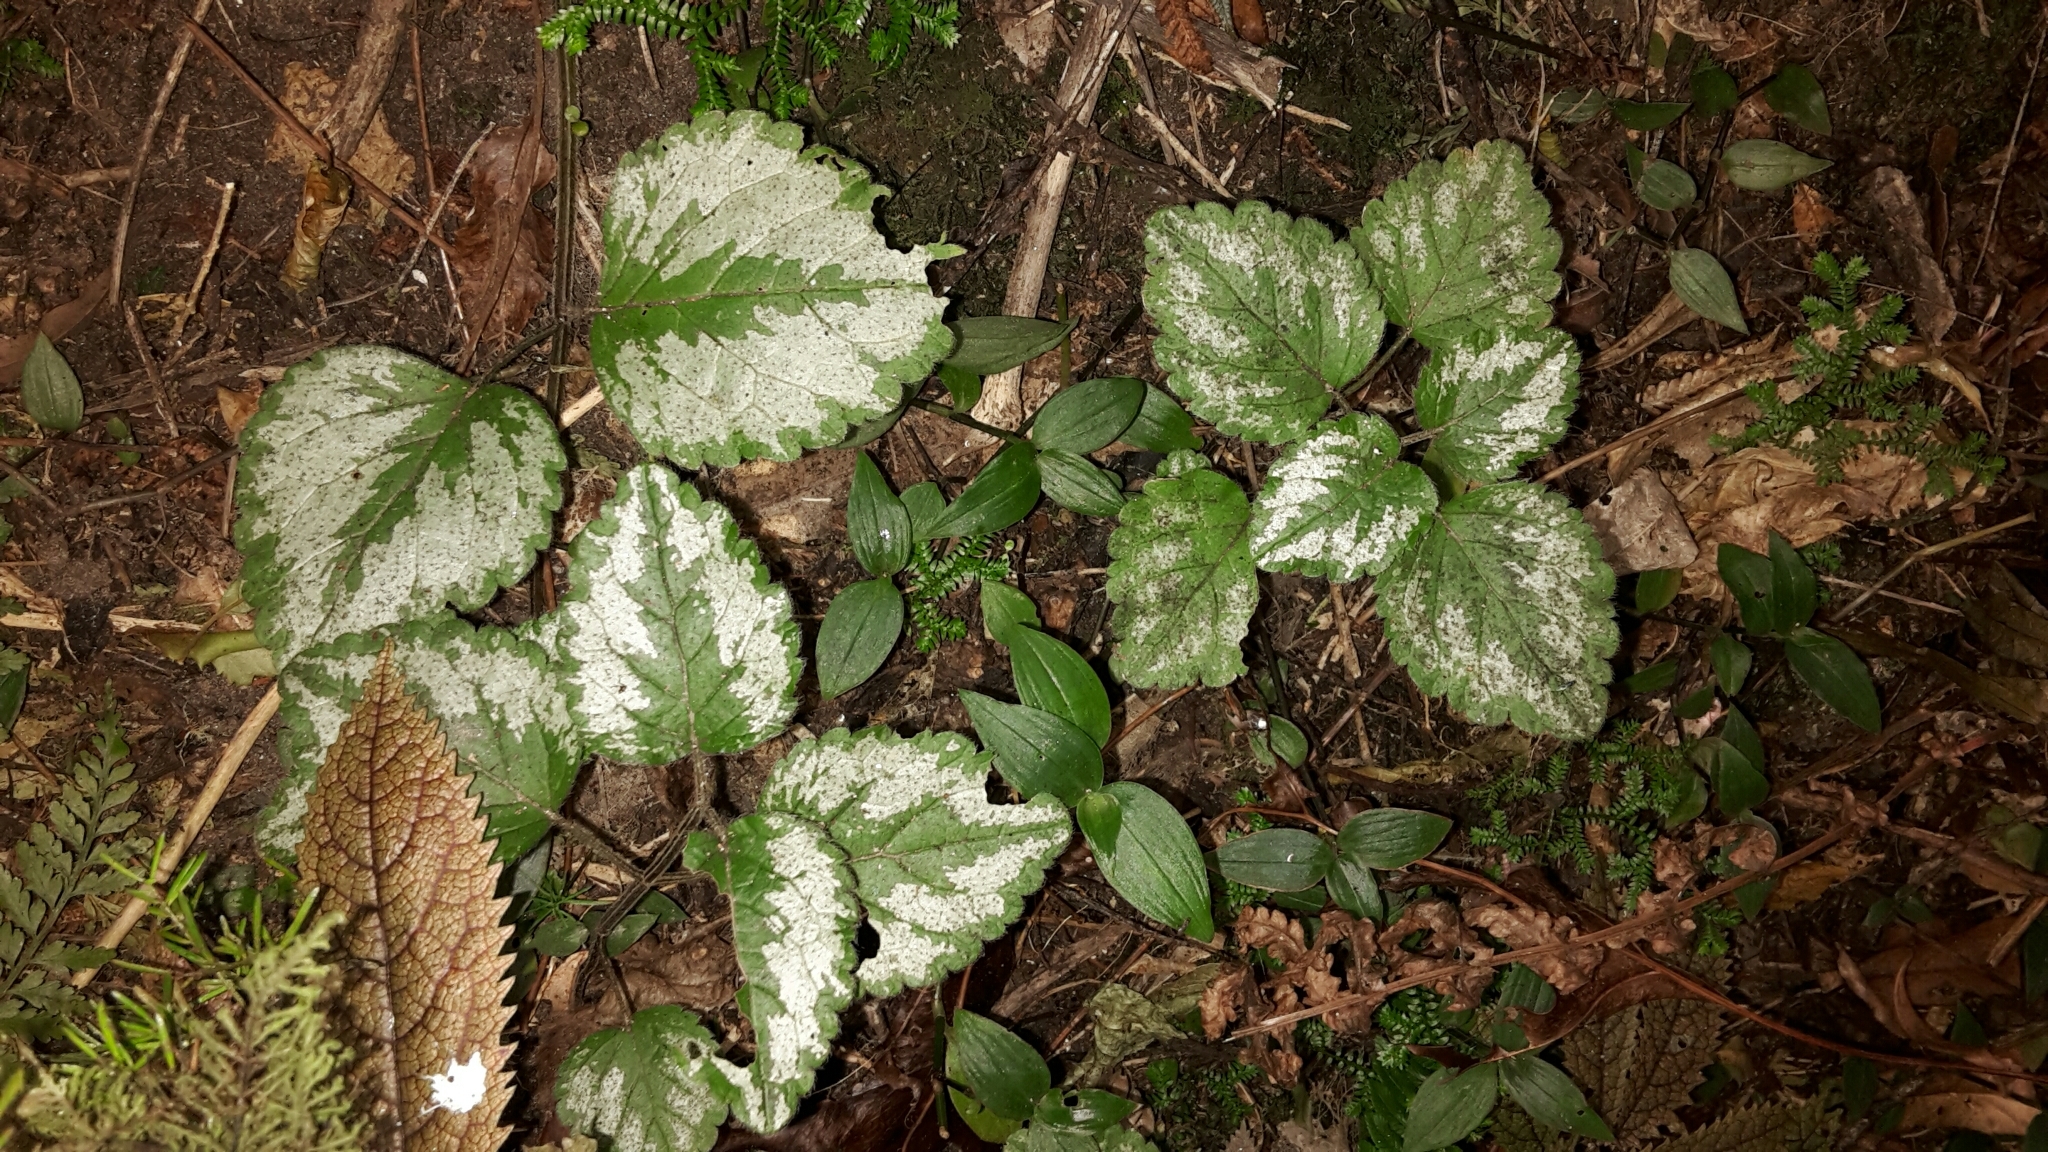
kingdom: Plantae
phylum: Tracheophyta
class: Magnoliopsida
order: Lamiales
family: Lamiaceae
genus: Lamium
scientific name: Lamium galeobdolon
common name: Yellow archangel
